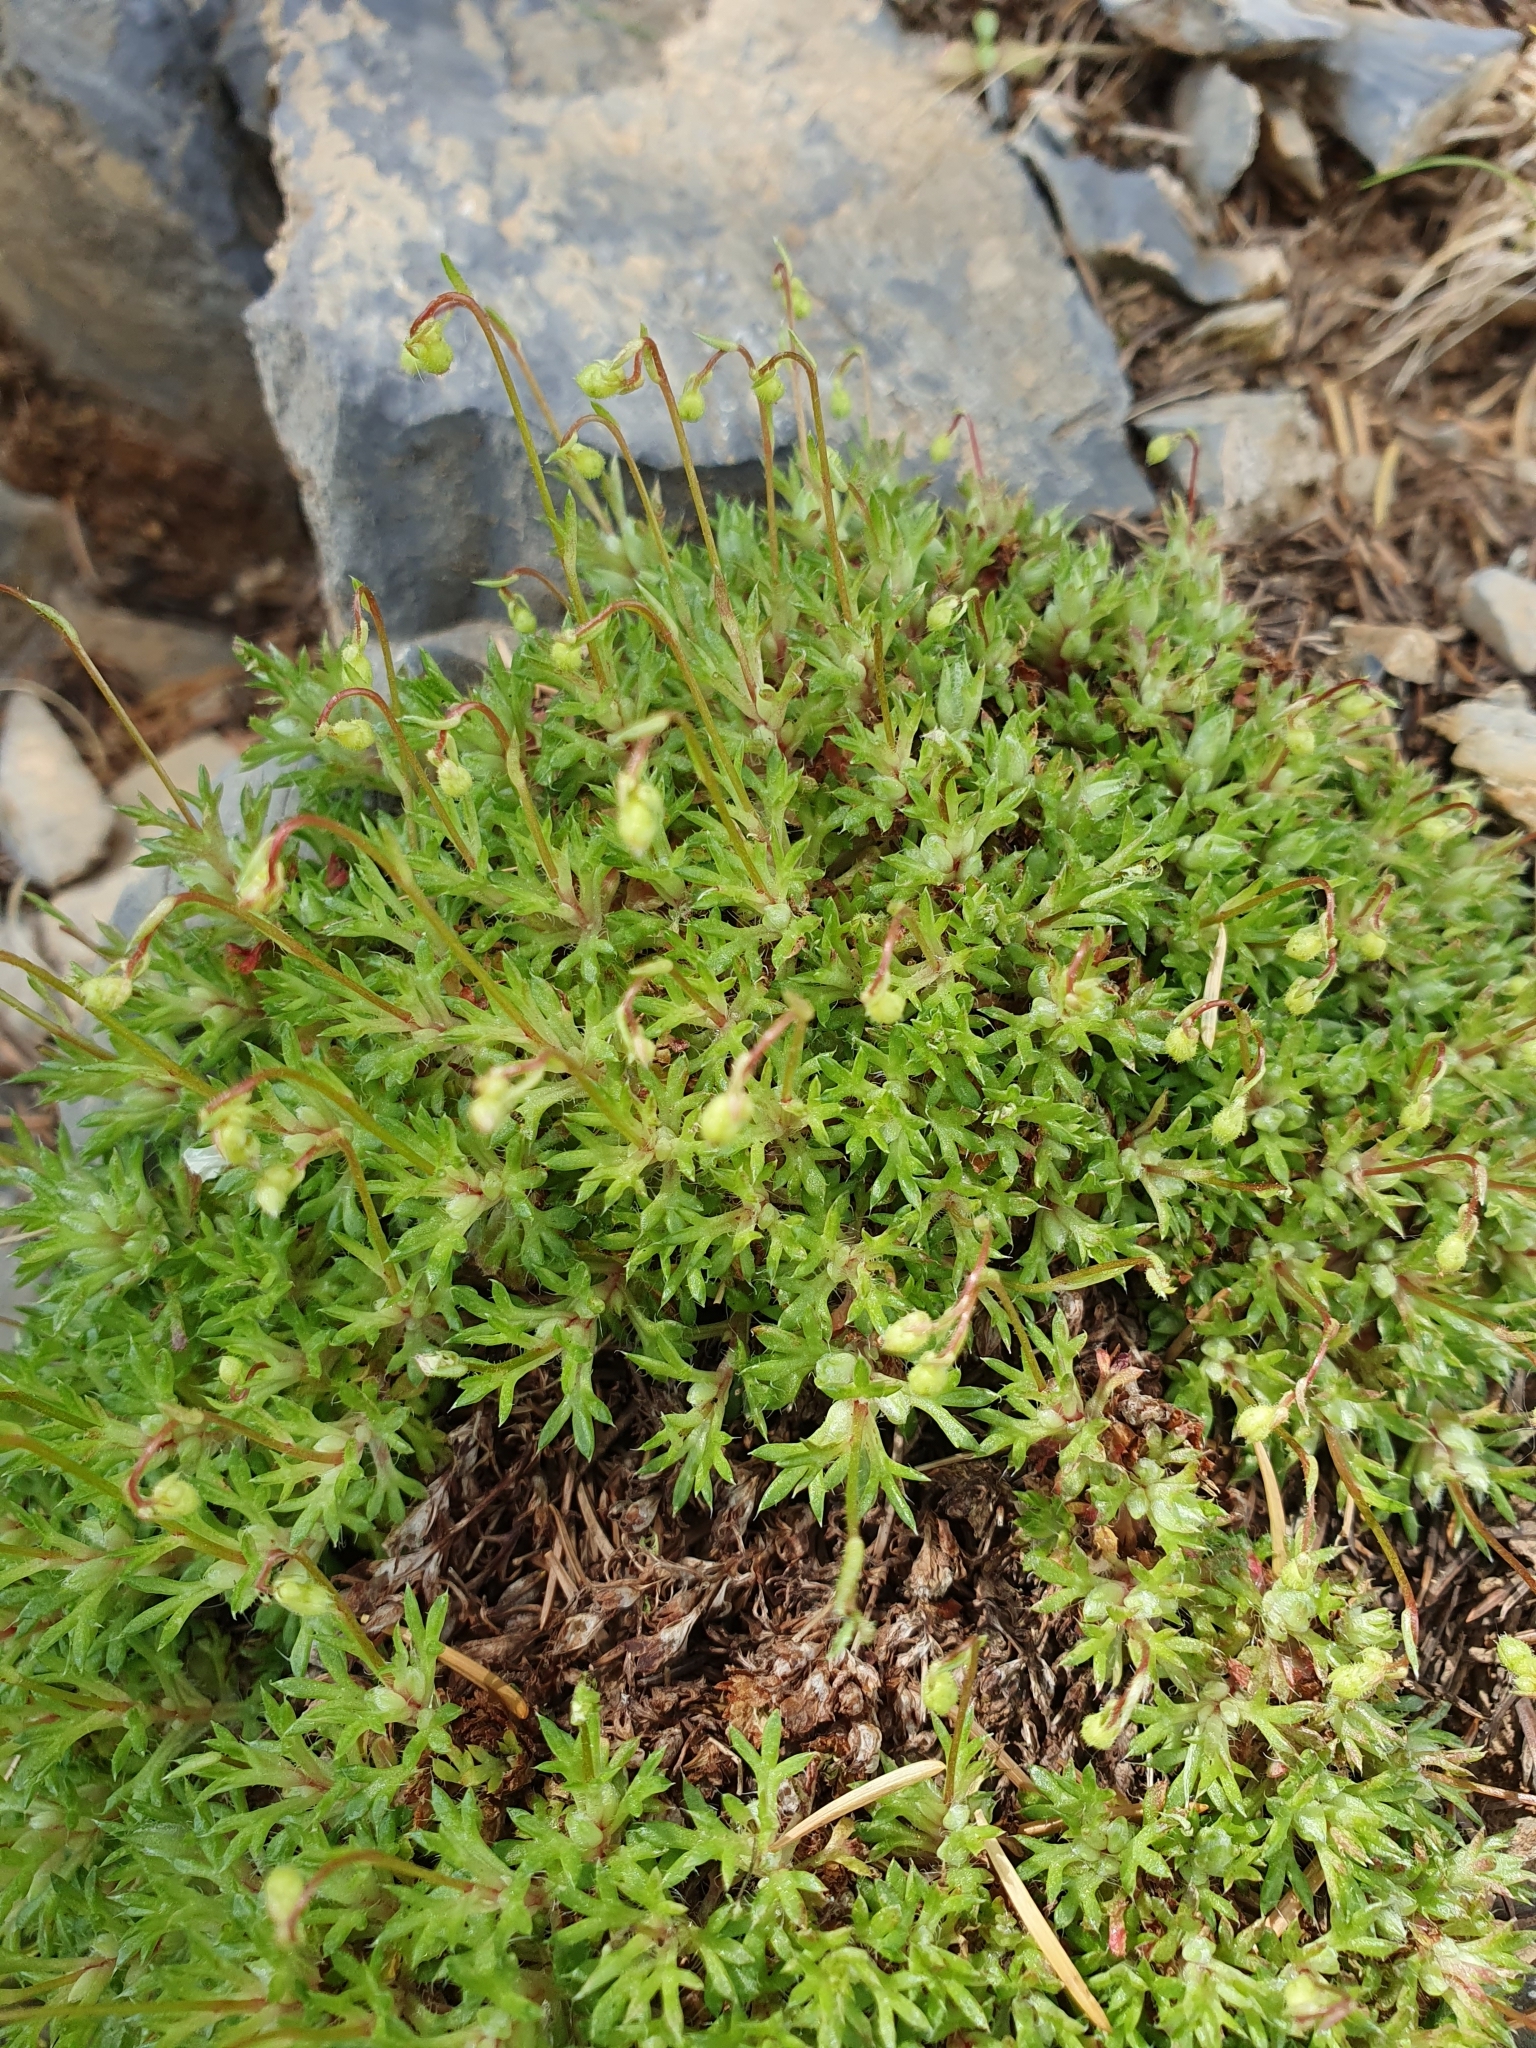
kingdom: Plantae
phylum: Tracheophyta
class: Magnoliopsida
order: Saxifragales
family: Saxifragaceae
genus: Saxifraga
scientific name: Saxifraga trabutiana
